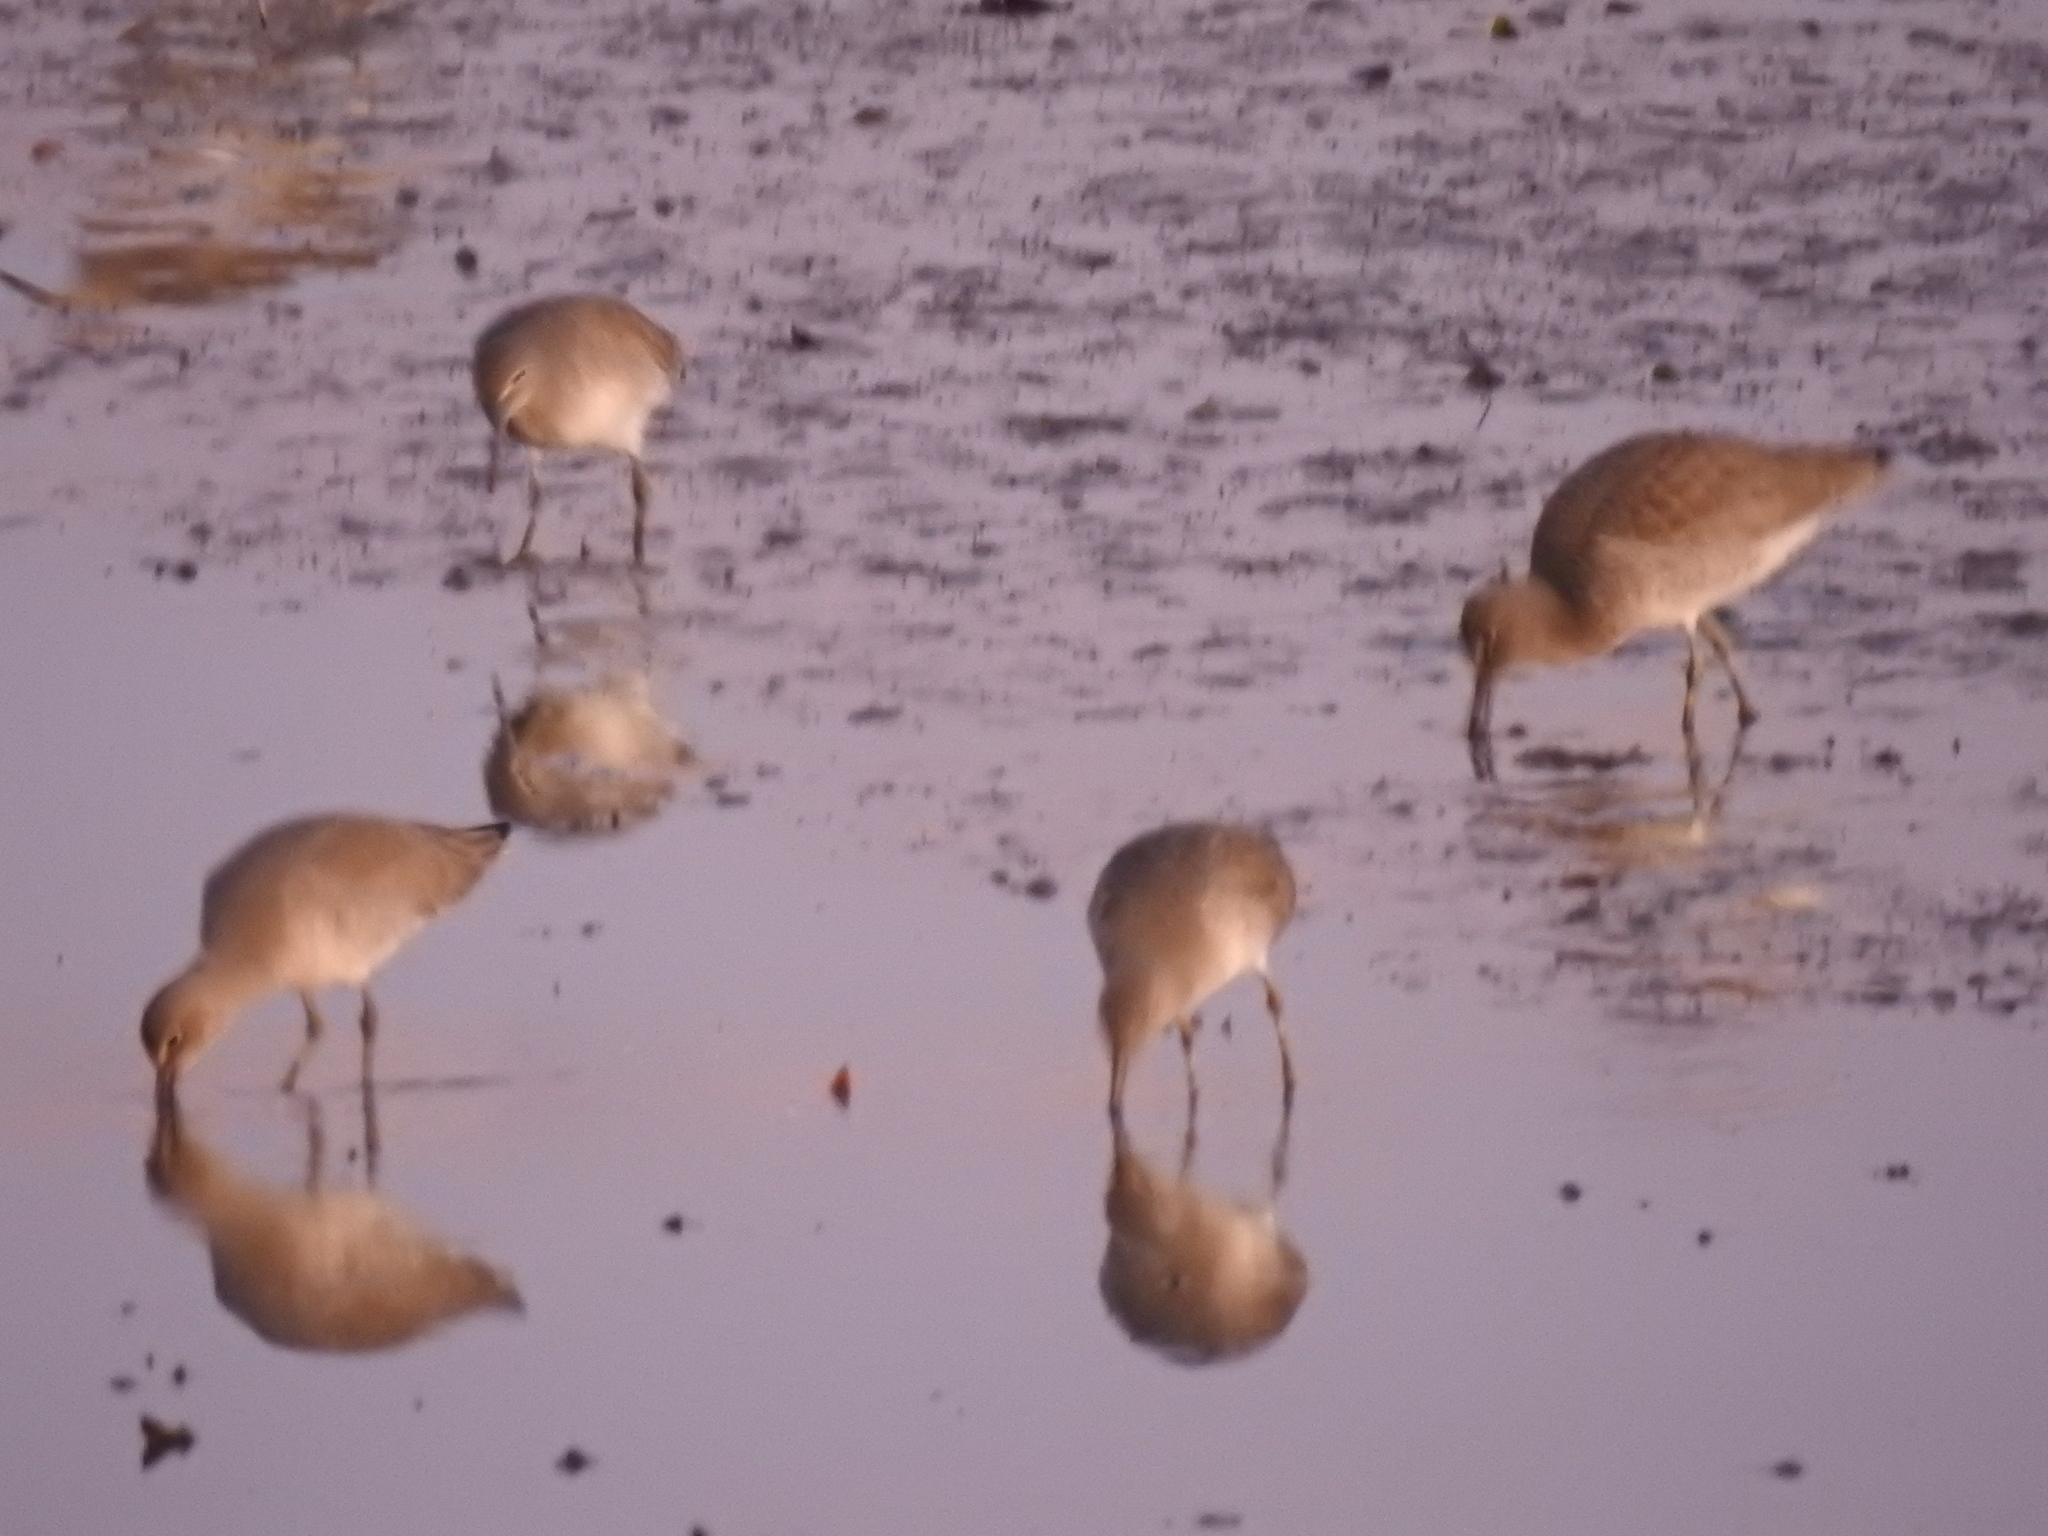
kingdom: Animalia
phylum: Chordata
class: Aves
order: Charadriiformes
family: Scolopacidae
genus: Limosa
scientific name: Limosa fedoa
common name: Marbled godwit
